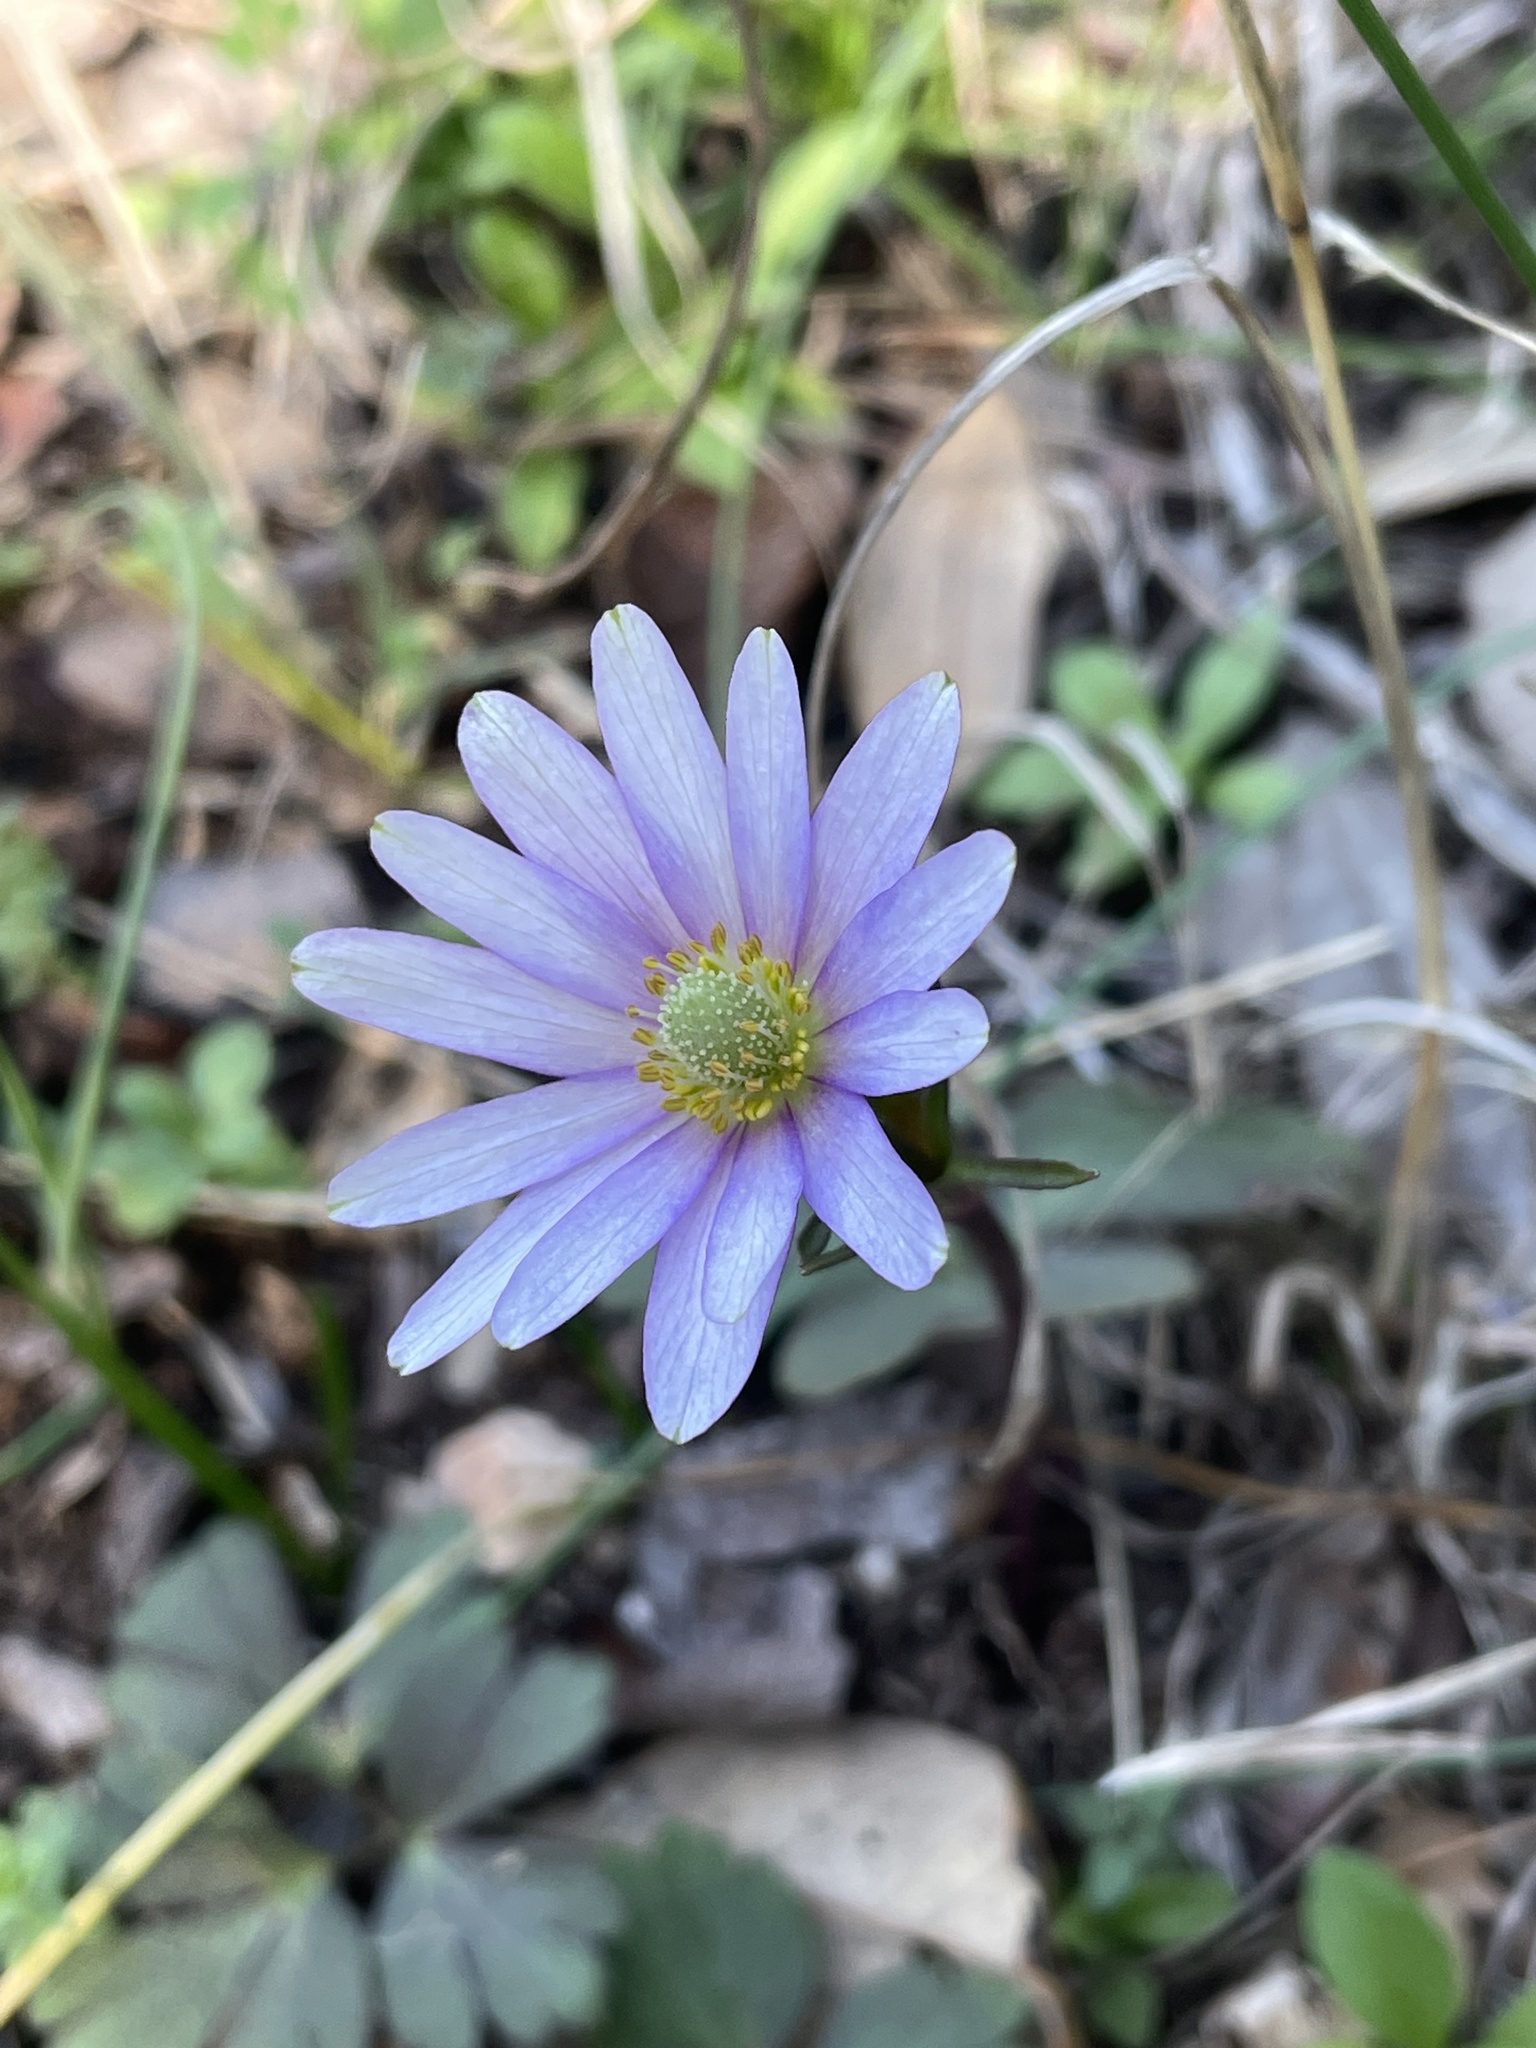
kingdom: Plantae
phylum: Tracheophyta
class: Magnoliopsida
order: Ranunculales
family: Ranunculaceae
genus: Anemone
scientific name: Anemone berlandieri
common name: Ten-petal anemone
